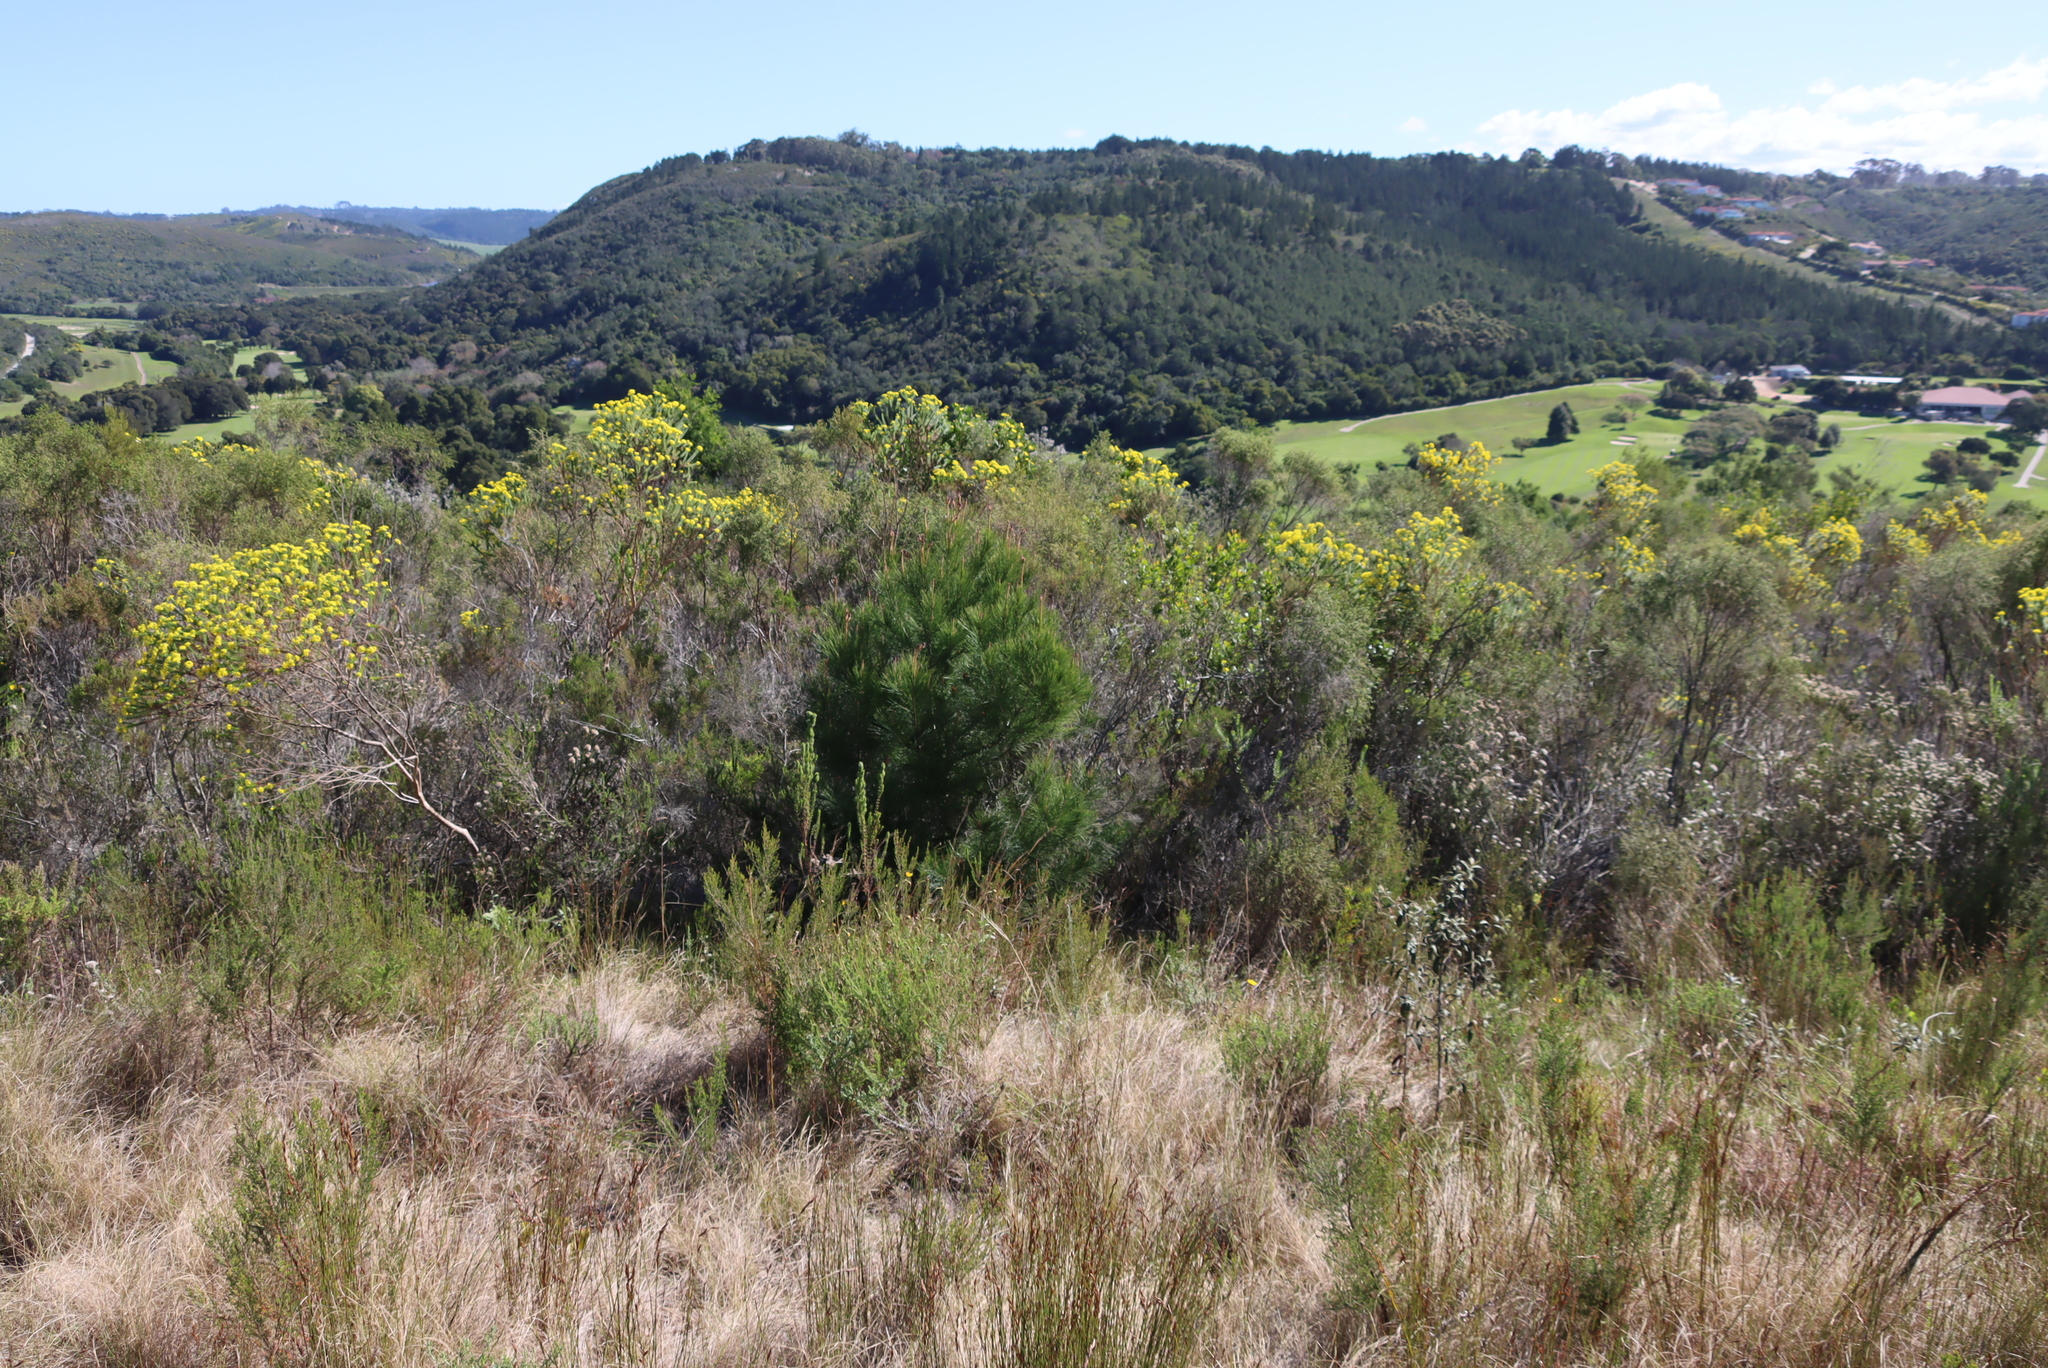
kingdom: Plantae
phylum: Tracheophyta
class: Pinopsida
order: Pinales
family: Pinaceae
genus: Pinus
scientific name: Pinus radiata
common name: Monterey pine
